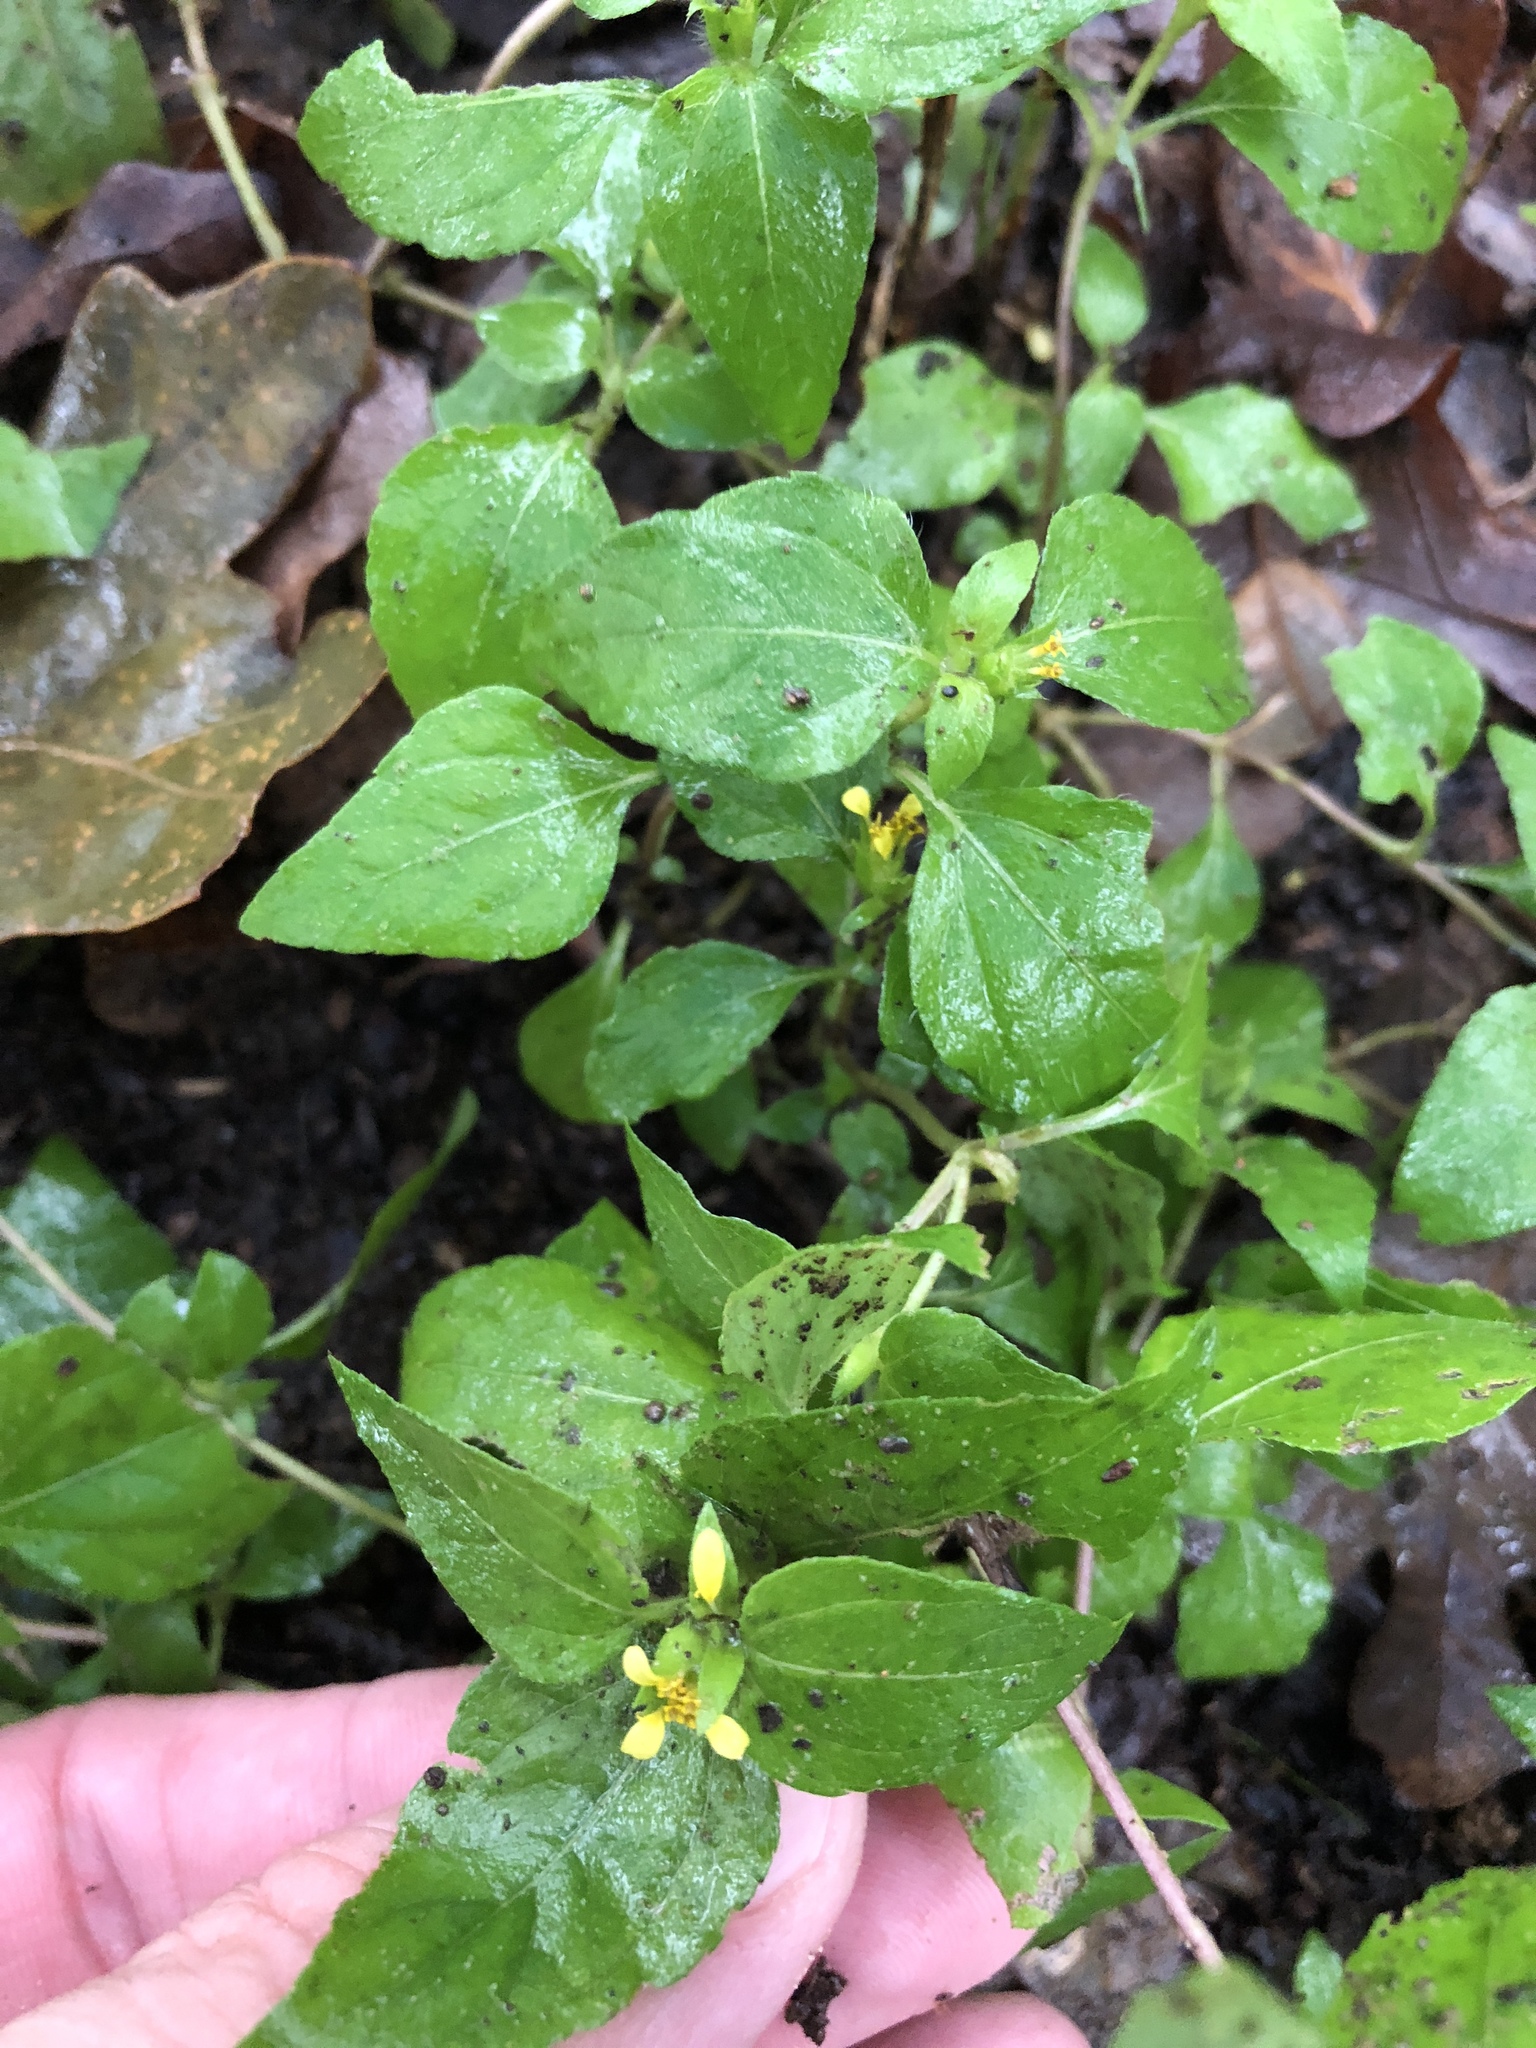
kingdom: Plantae
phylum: Tracheophyta
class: Magnoliopsida
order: Asterales
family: Asteraceae
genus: Calyptocarpus
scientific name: Calyptocarpus vialis
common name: Straggler daisy
